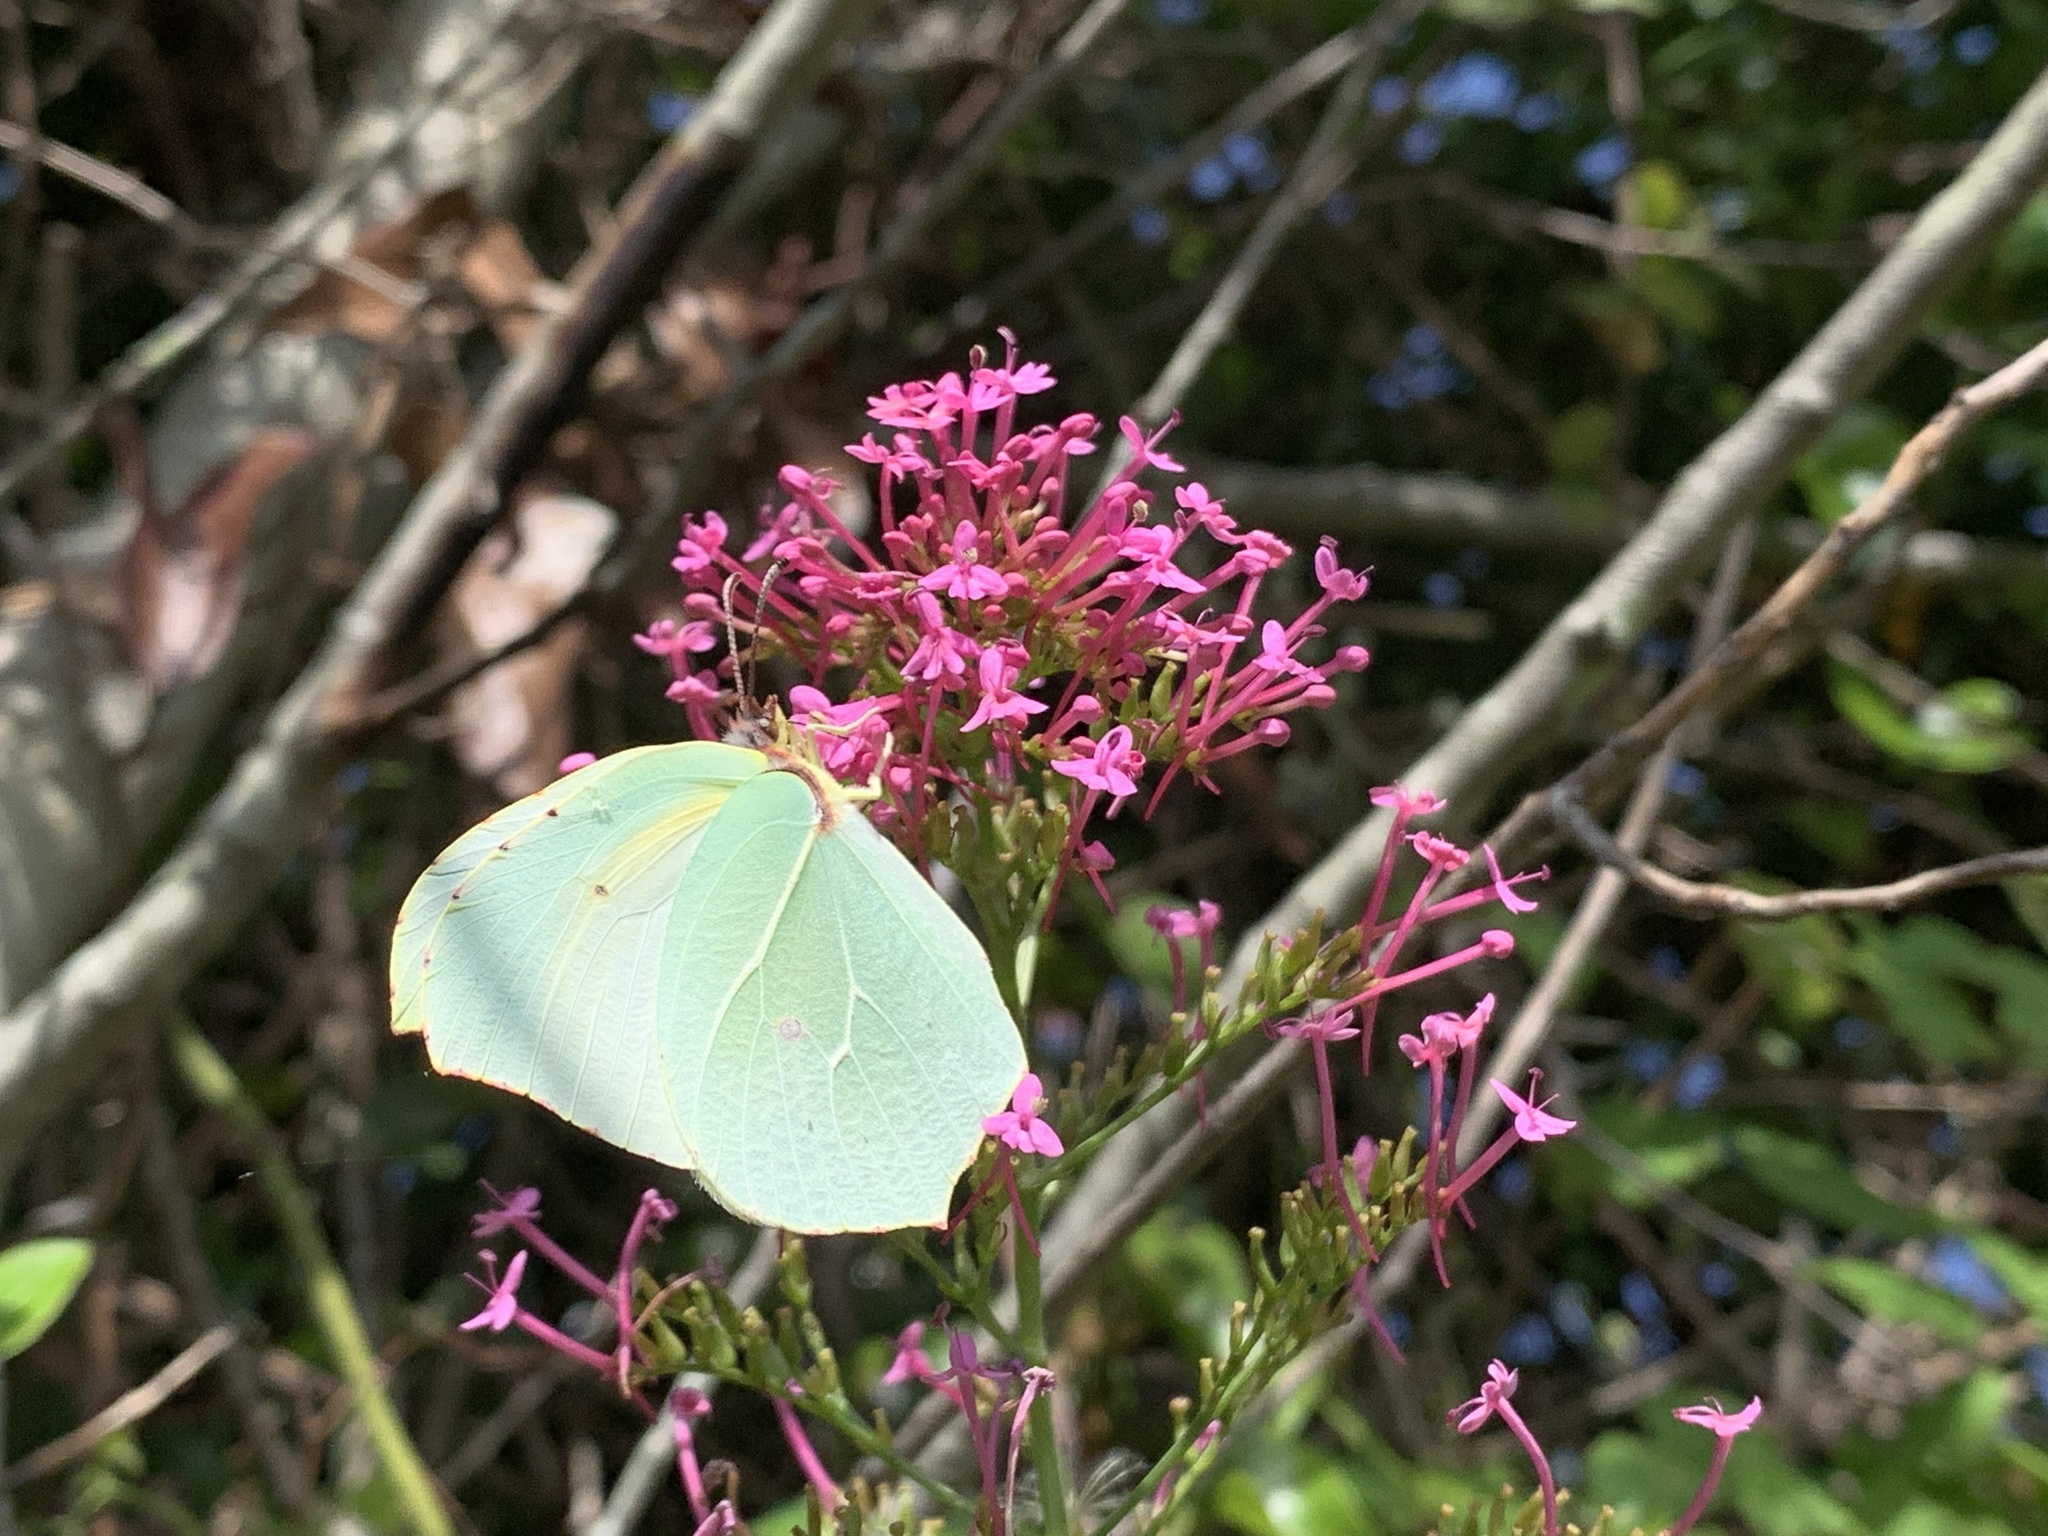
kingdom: Animalia
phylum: Arthropoda
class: Insecta
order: Lepidoptera
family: Pieridae
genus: Gonepteryx
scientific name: Gonepteryx cleopatra
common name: Cleopatra
